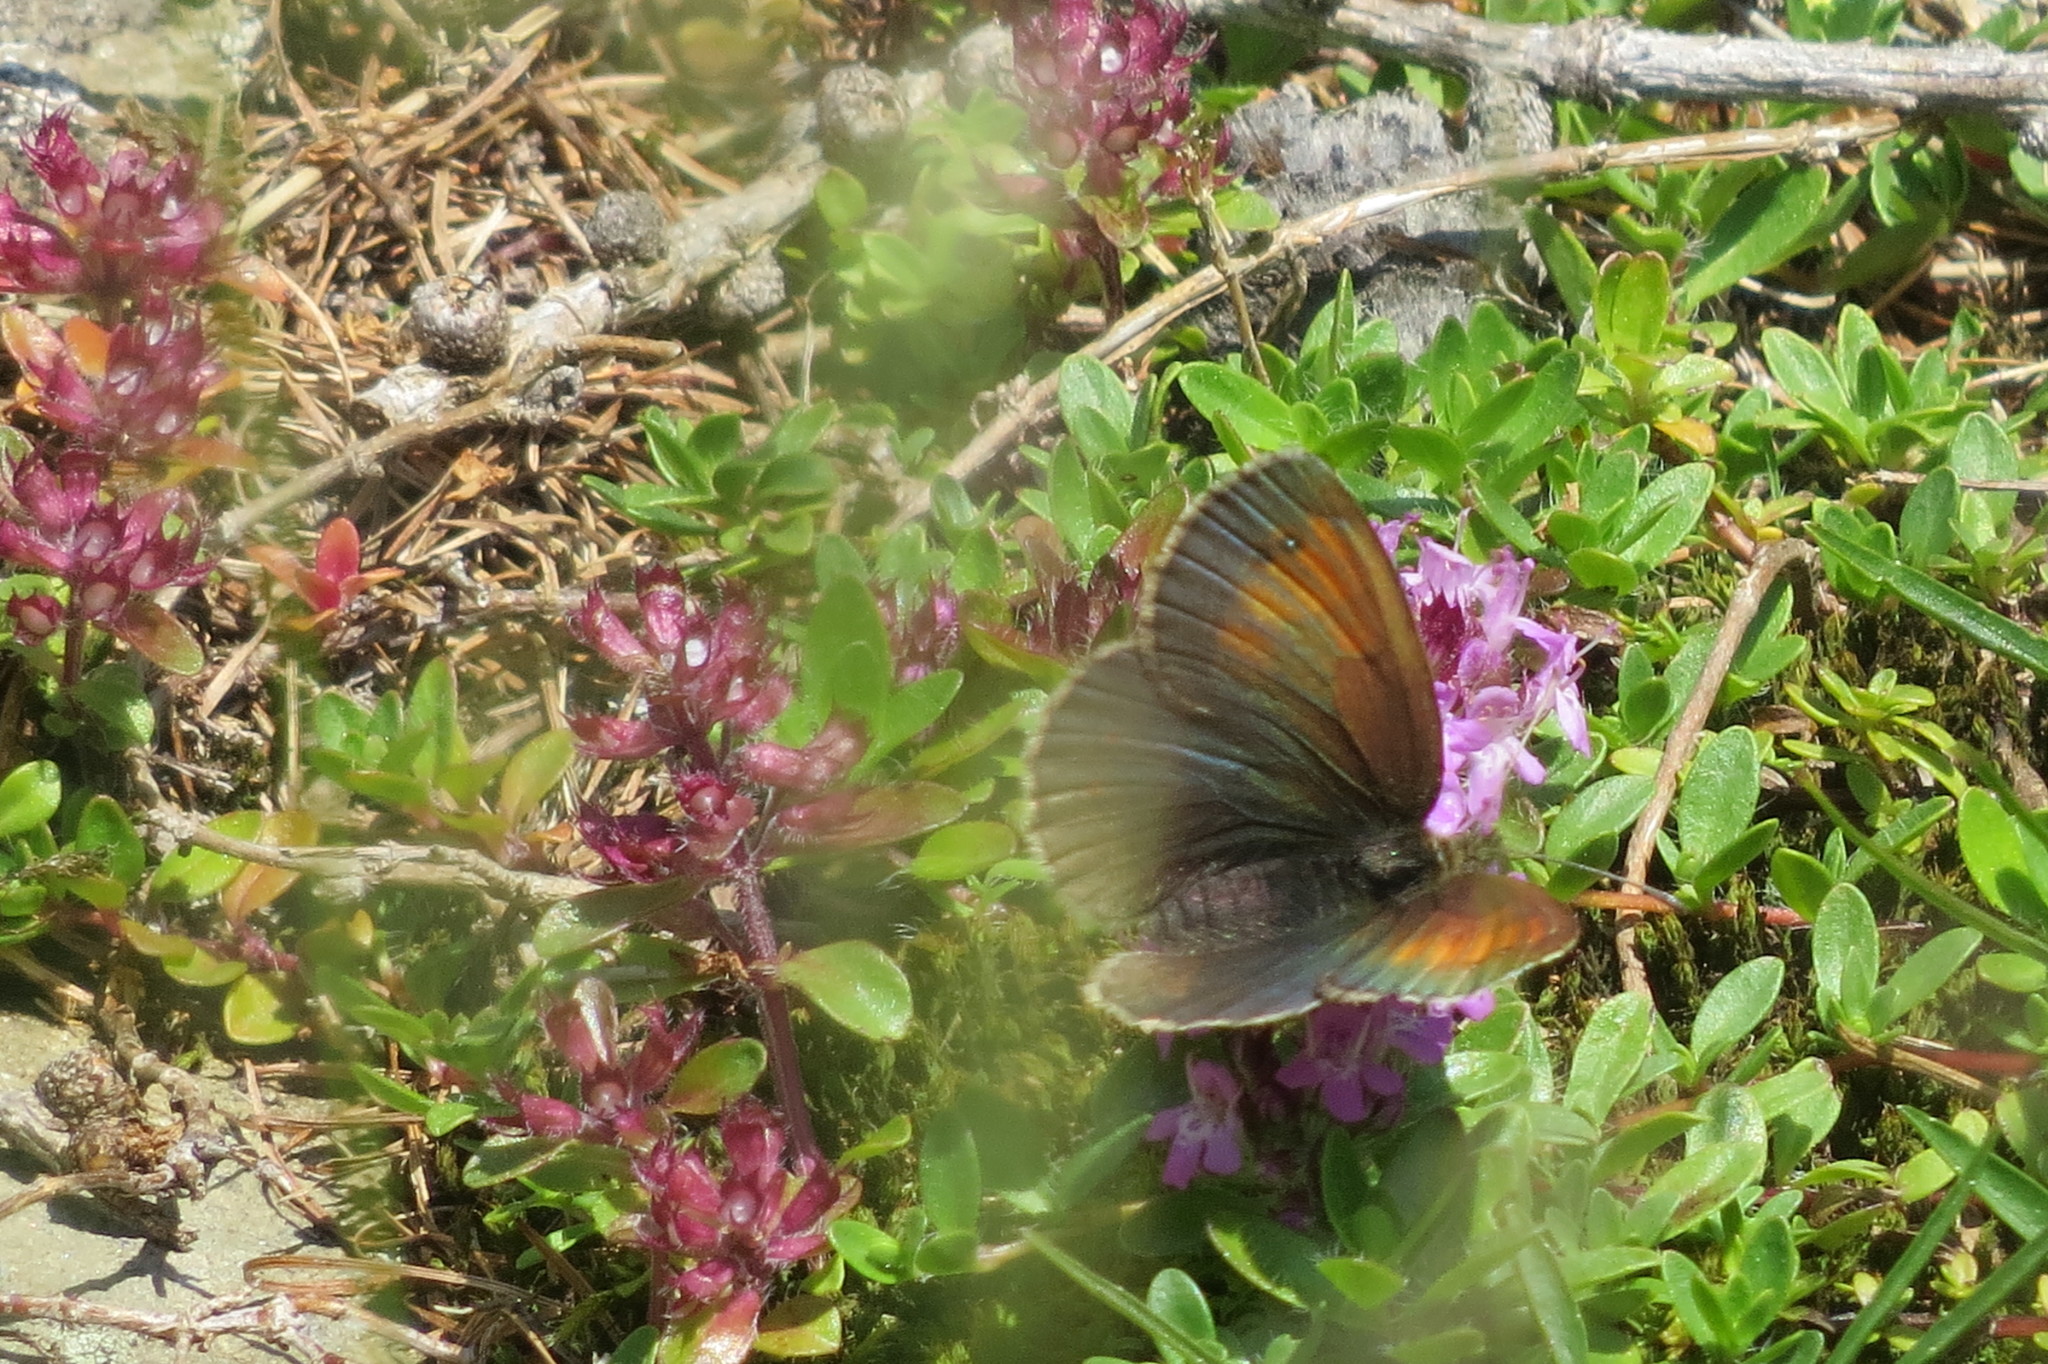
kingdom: Animalia
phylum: Arthropoda
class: Insecta
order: Lepidoptera
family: Nymphalidae
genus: Erebia
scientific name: Erebia tyndarus
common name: Swiss brassy ringlet
